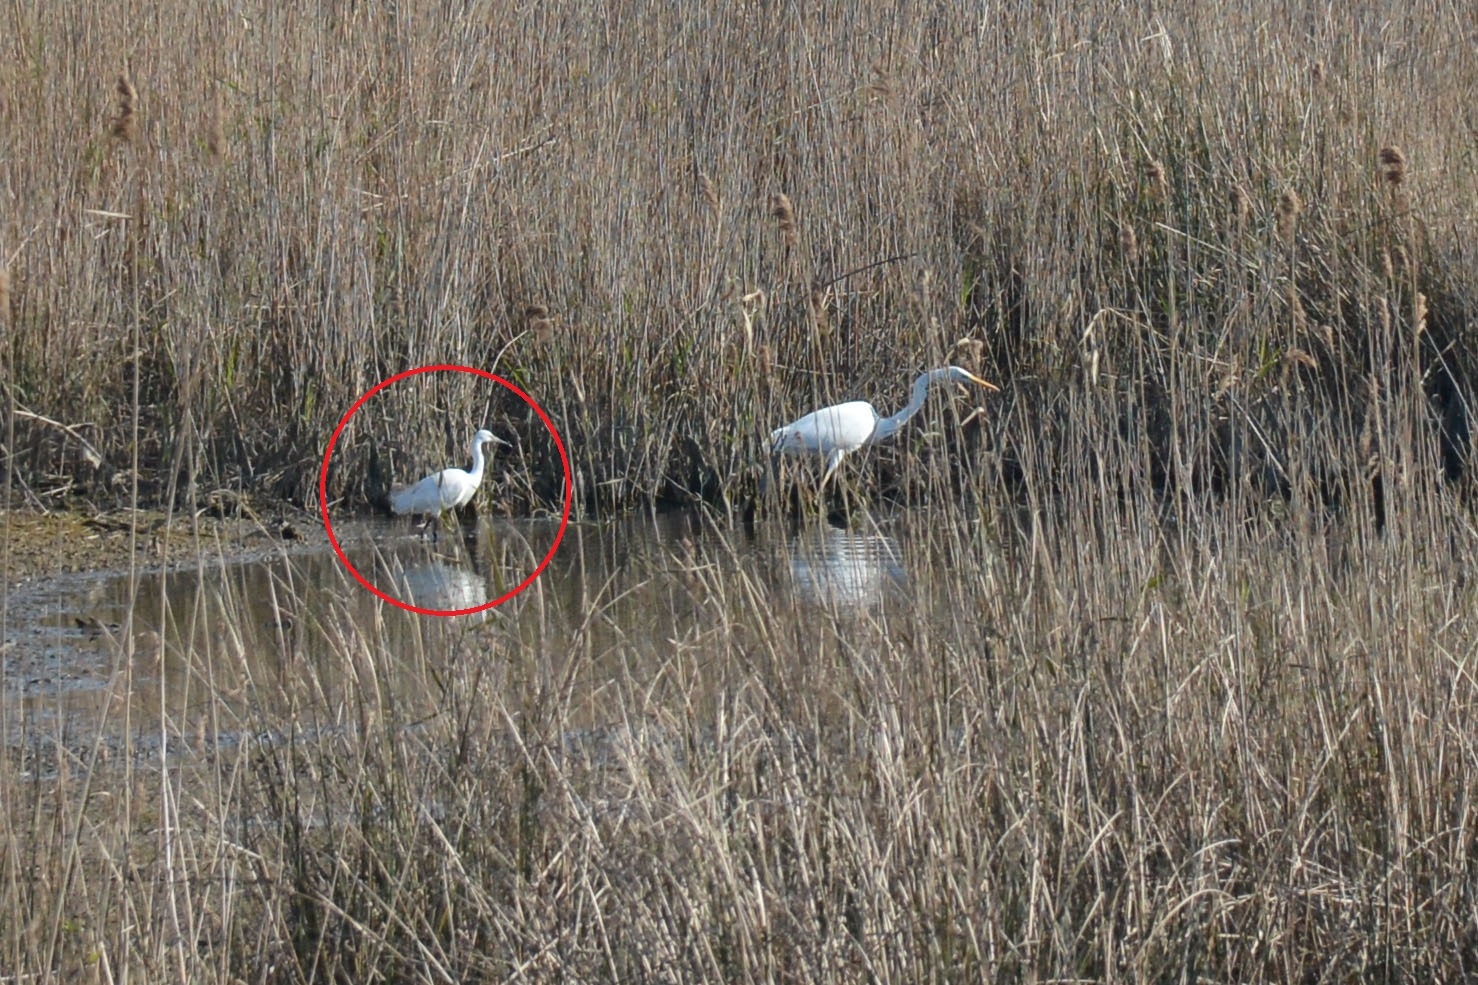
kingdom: Animalia
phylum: Chordata
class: Aves
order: Pelecaniformes
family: Ardeidae
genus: Egretta
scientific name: Egretta garzetta
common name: Little egret
